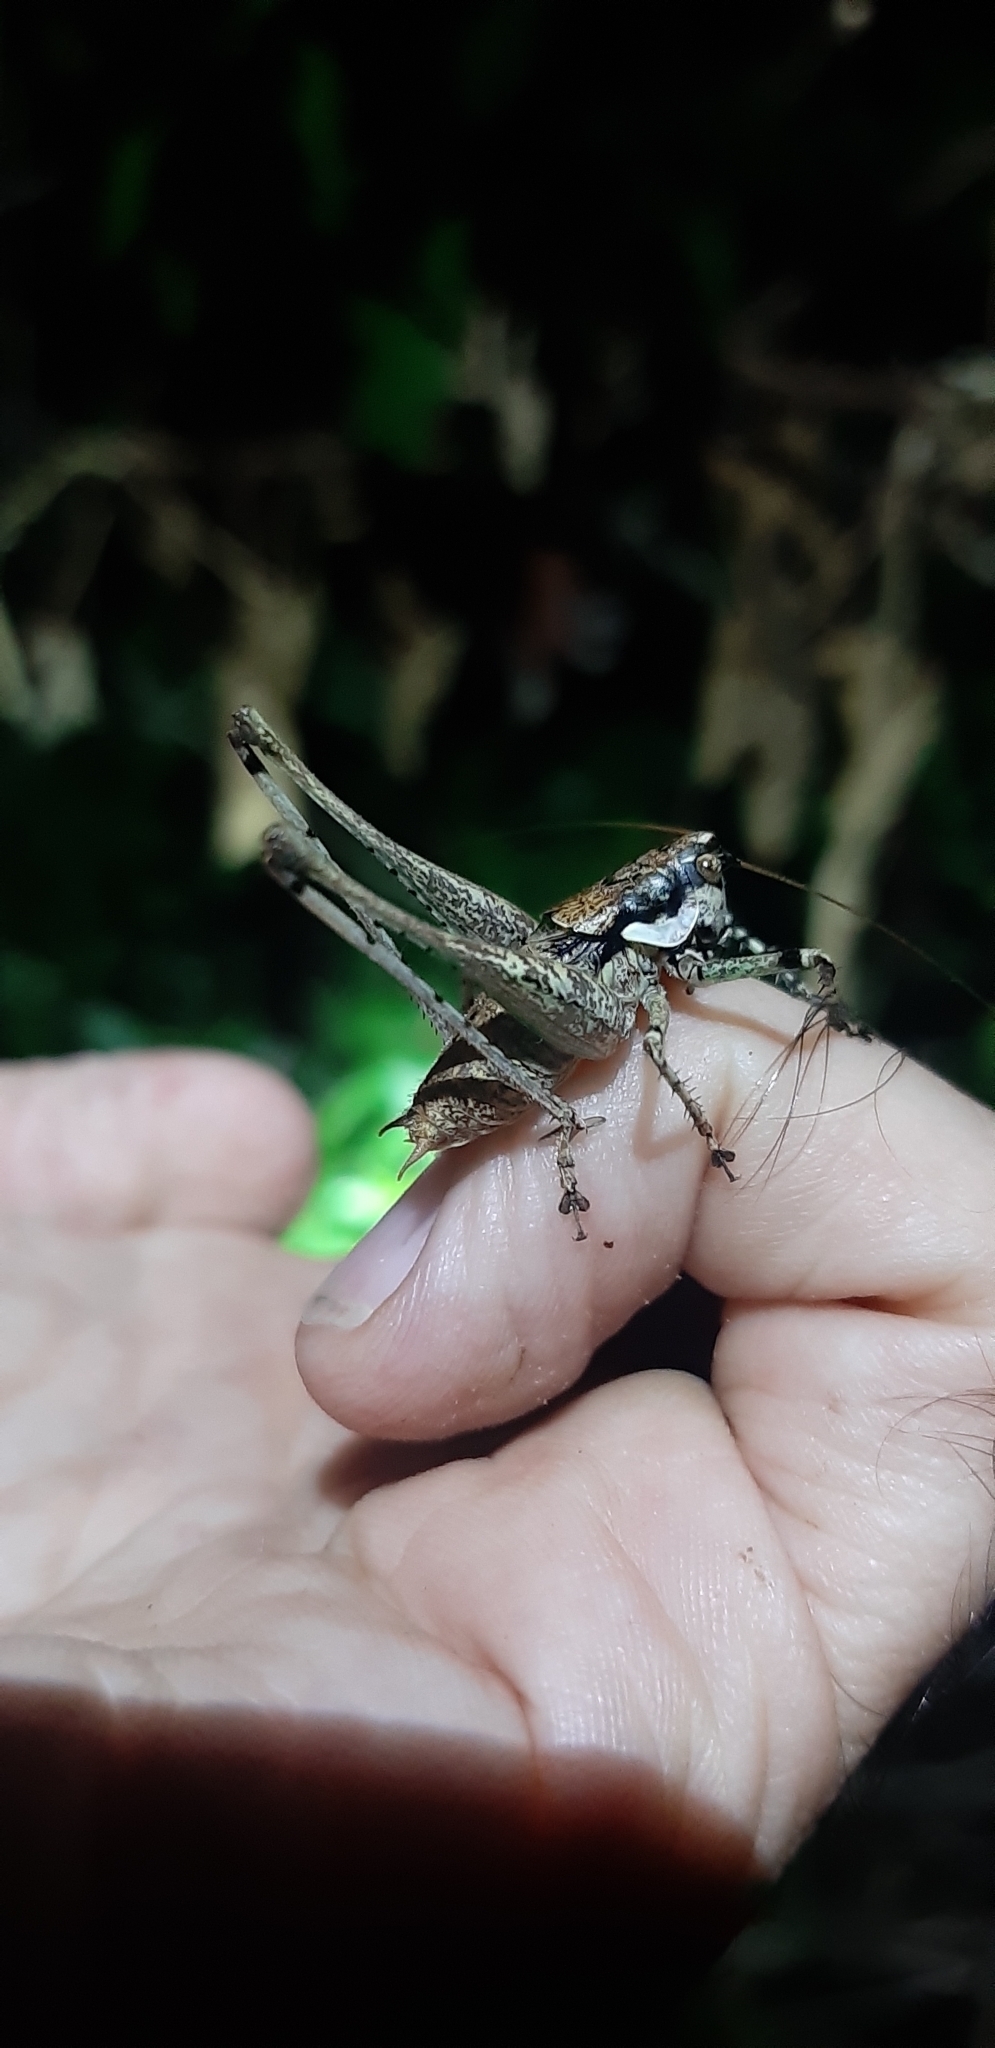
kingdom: Animalia
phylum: Arthropoda
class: Insecta
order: Orthoptera
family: Tettigoniidae
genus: Rhacocleis
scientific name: Rhacocleis annulata
